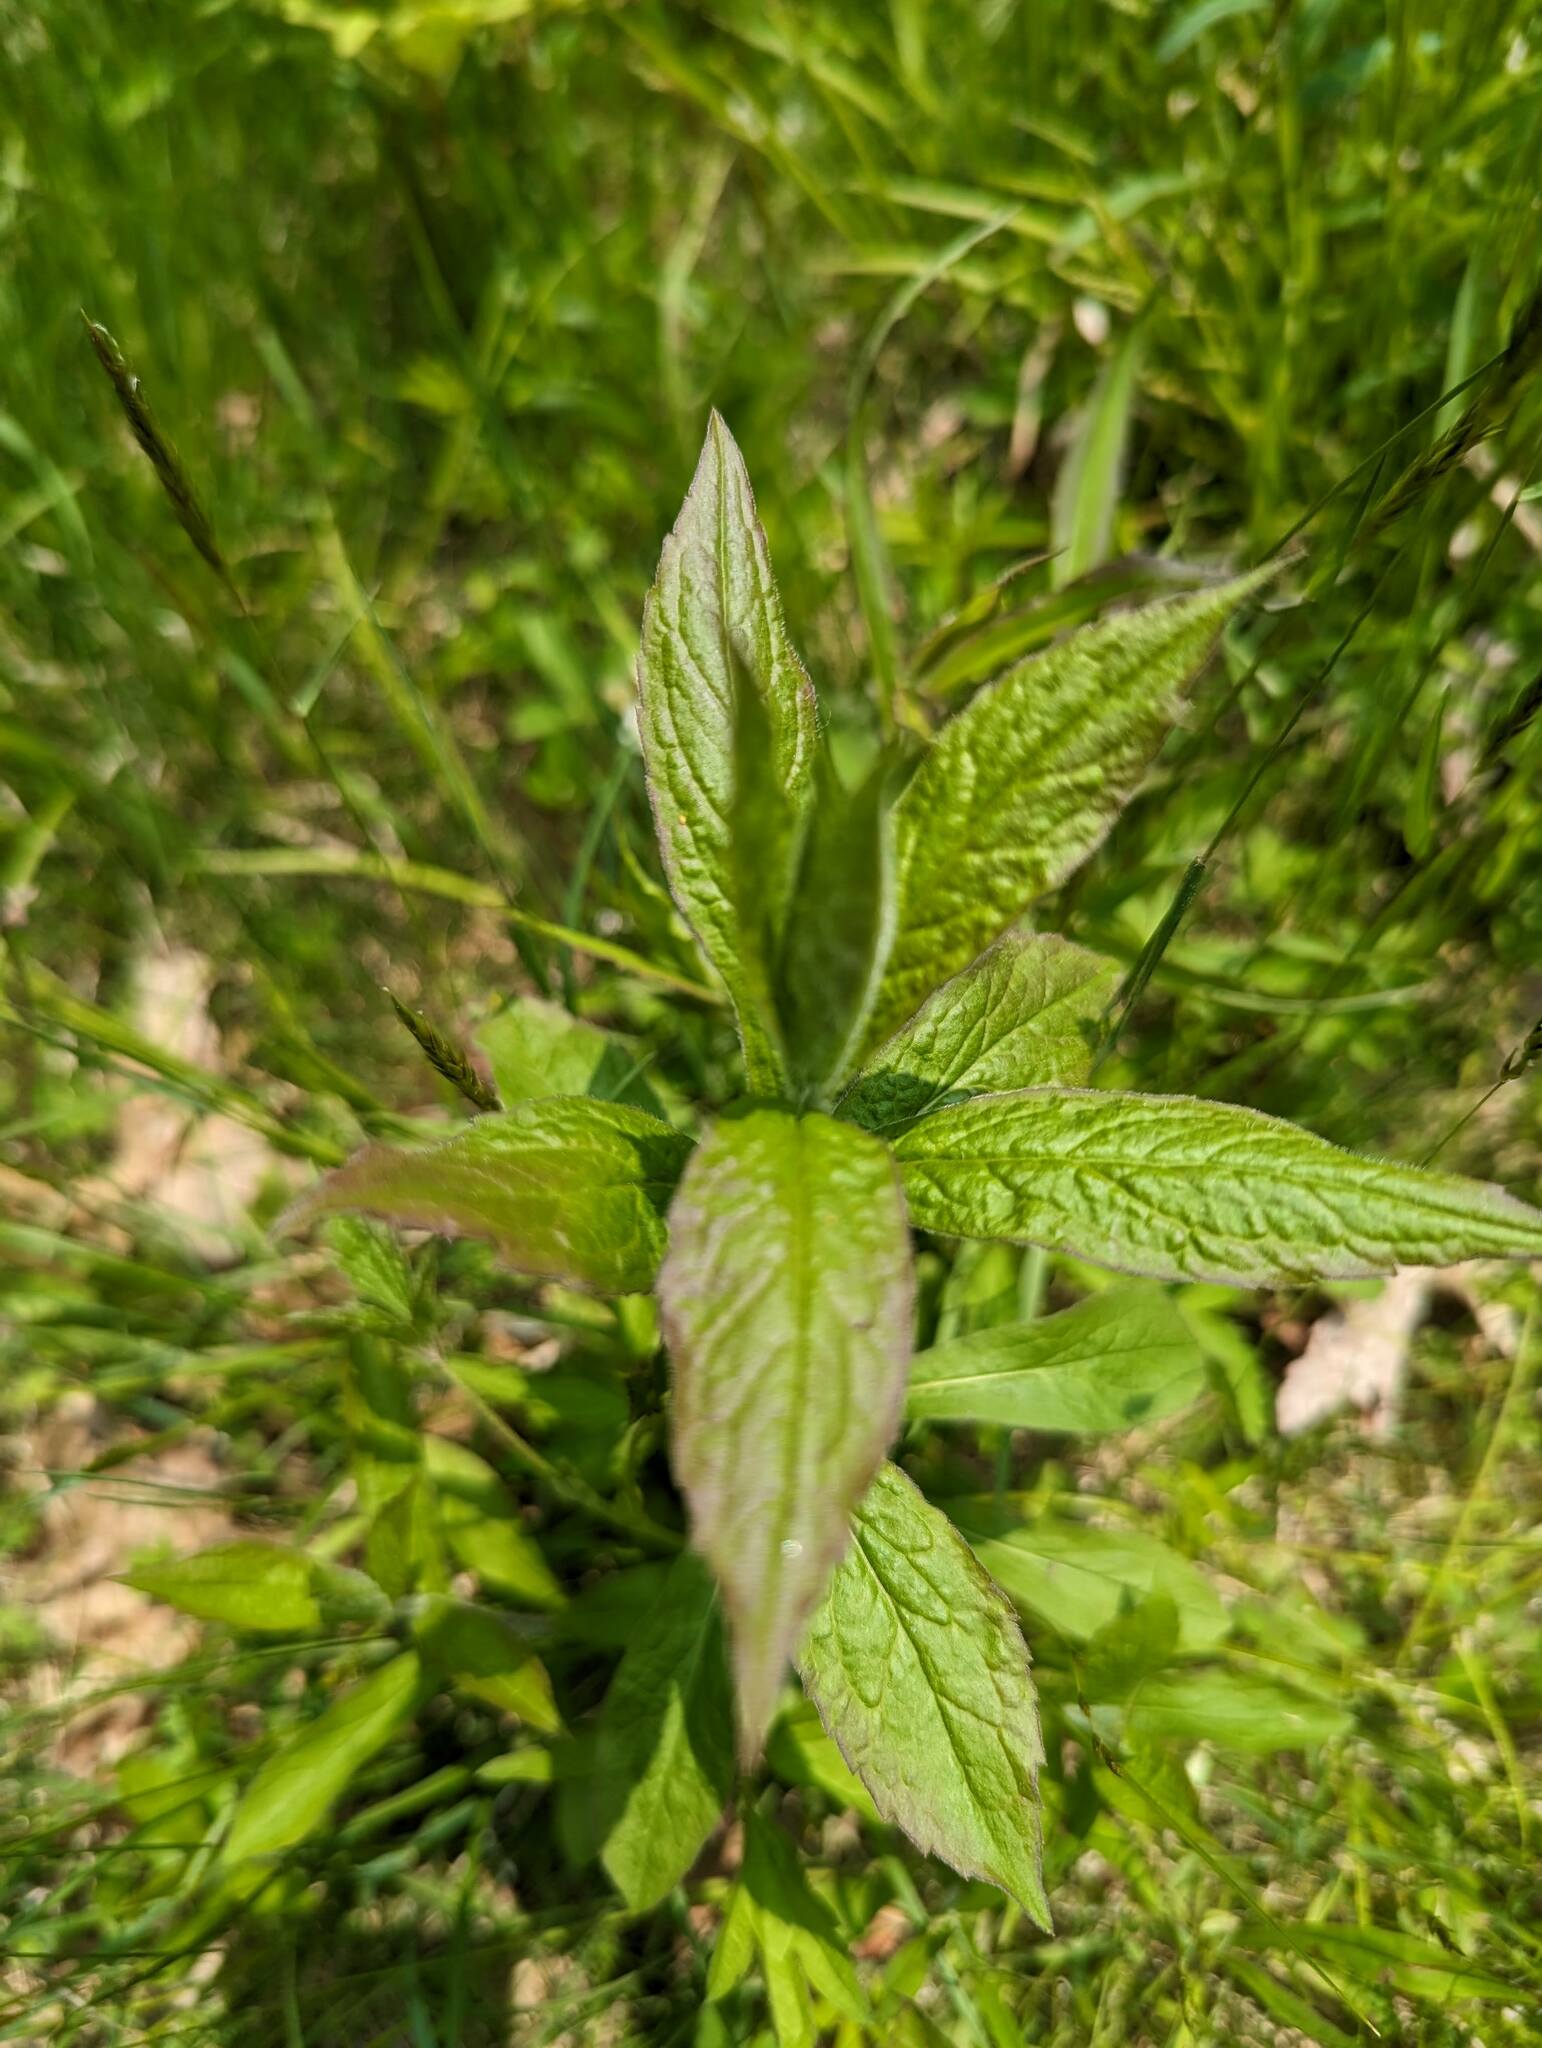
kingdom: Plantae
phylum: Tracheophyta
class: Magnoliopsida
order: Asterales
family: Asteraceae
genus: Solidago
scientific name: Solidago rugosa
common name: Rough-stemmed goldenrod
